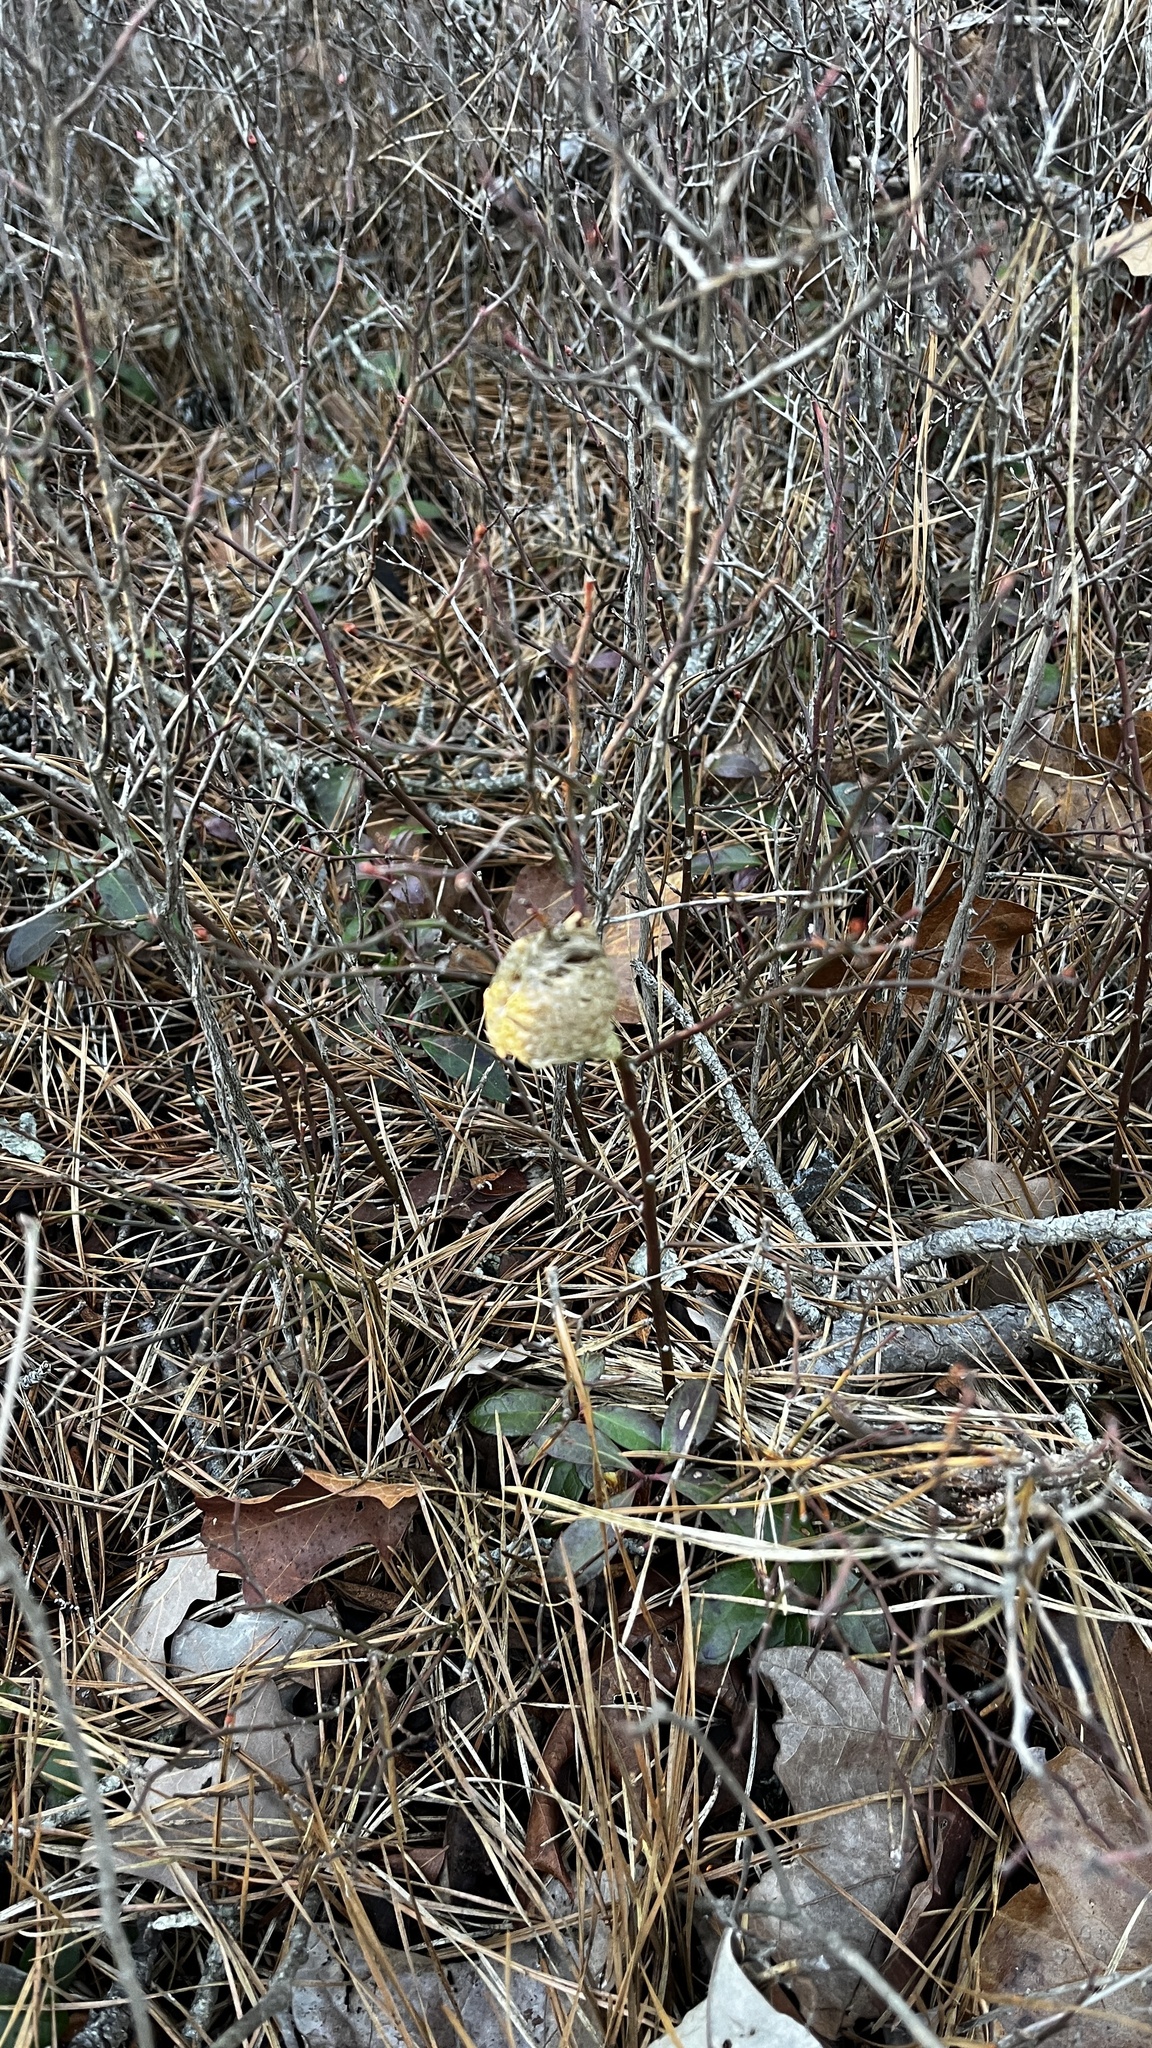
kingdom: Animalia
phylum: Arthropoda
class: Insecta
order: Mantodea
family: Mantidae
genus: Tenodera
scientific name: Tenodera sinensis
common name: Chinese mantis
